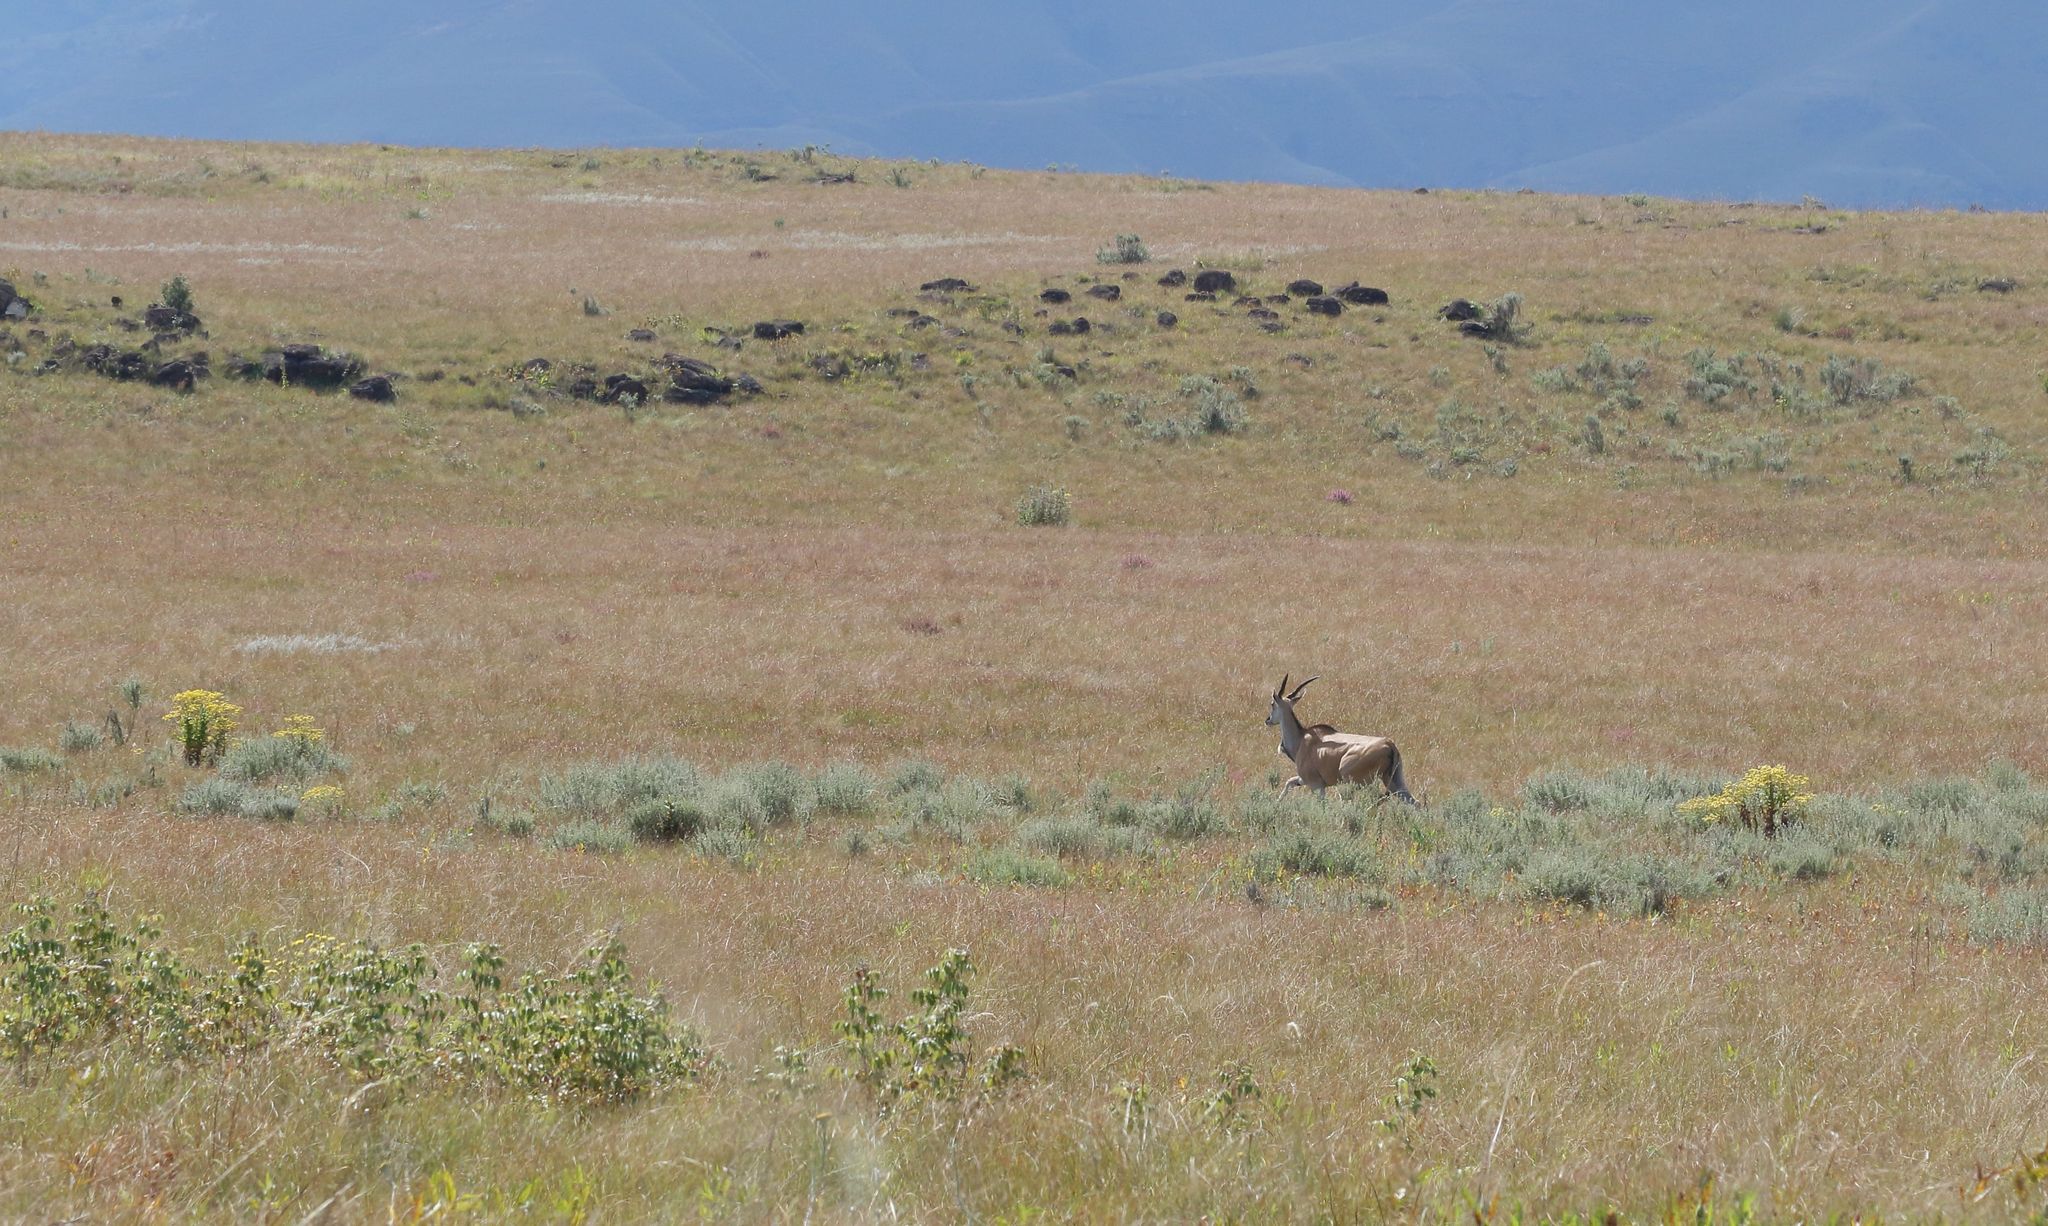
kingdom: Animalia
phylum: Chordata
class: Mammalia
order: Artiodactyla
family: Bovidae
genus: Taurotragus
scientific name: Taurotragus oryx
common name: Common eland
